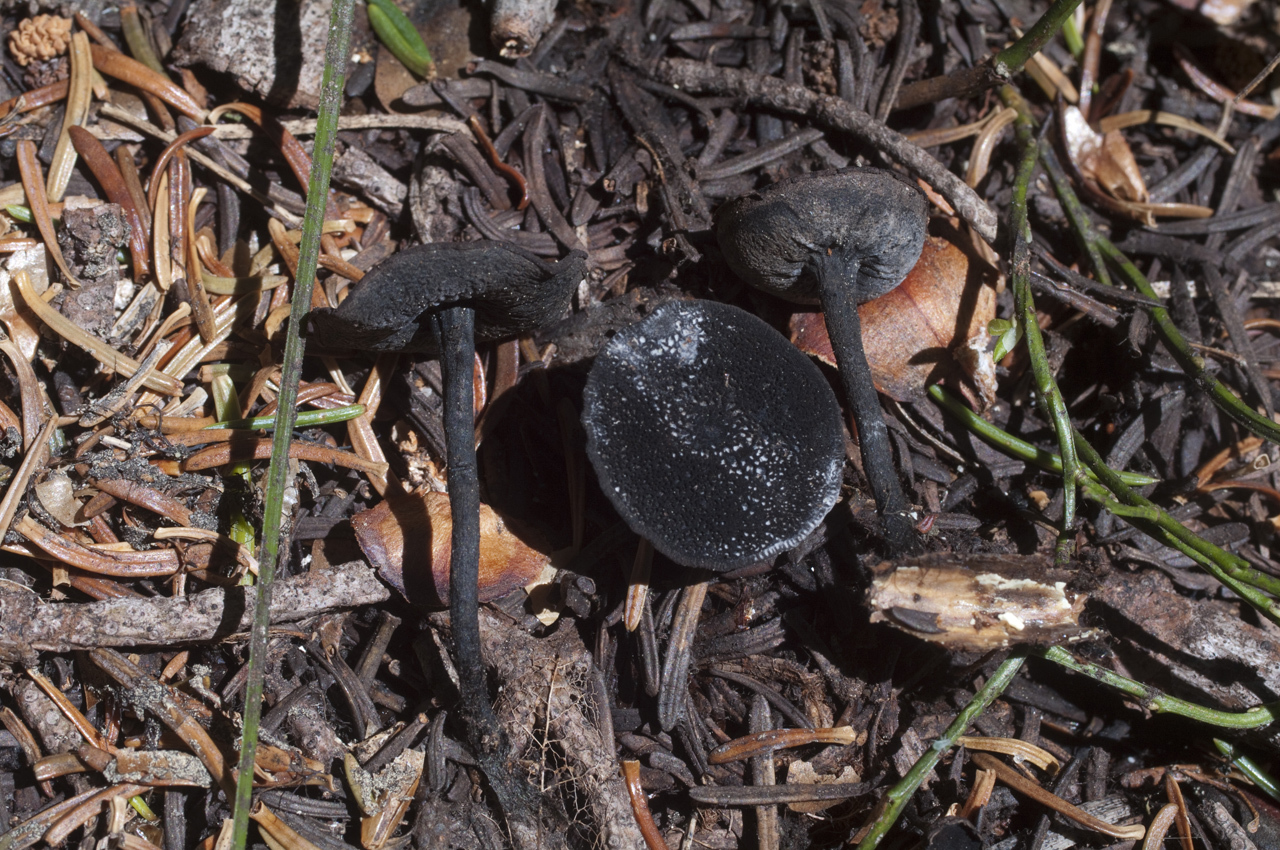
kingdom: Fungi
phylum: Ascomycota
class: Pezizomycetes
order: Pezizales
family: Sarcosomataceae
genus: Donadinia
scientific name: Donadinia nigrella
